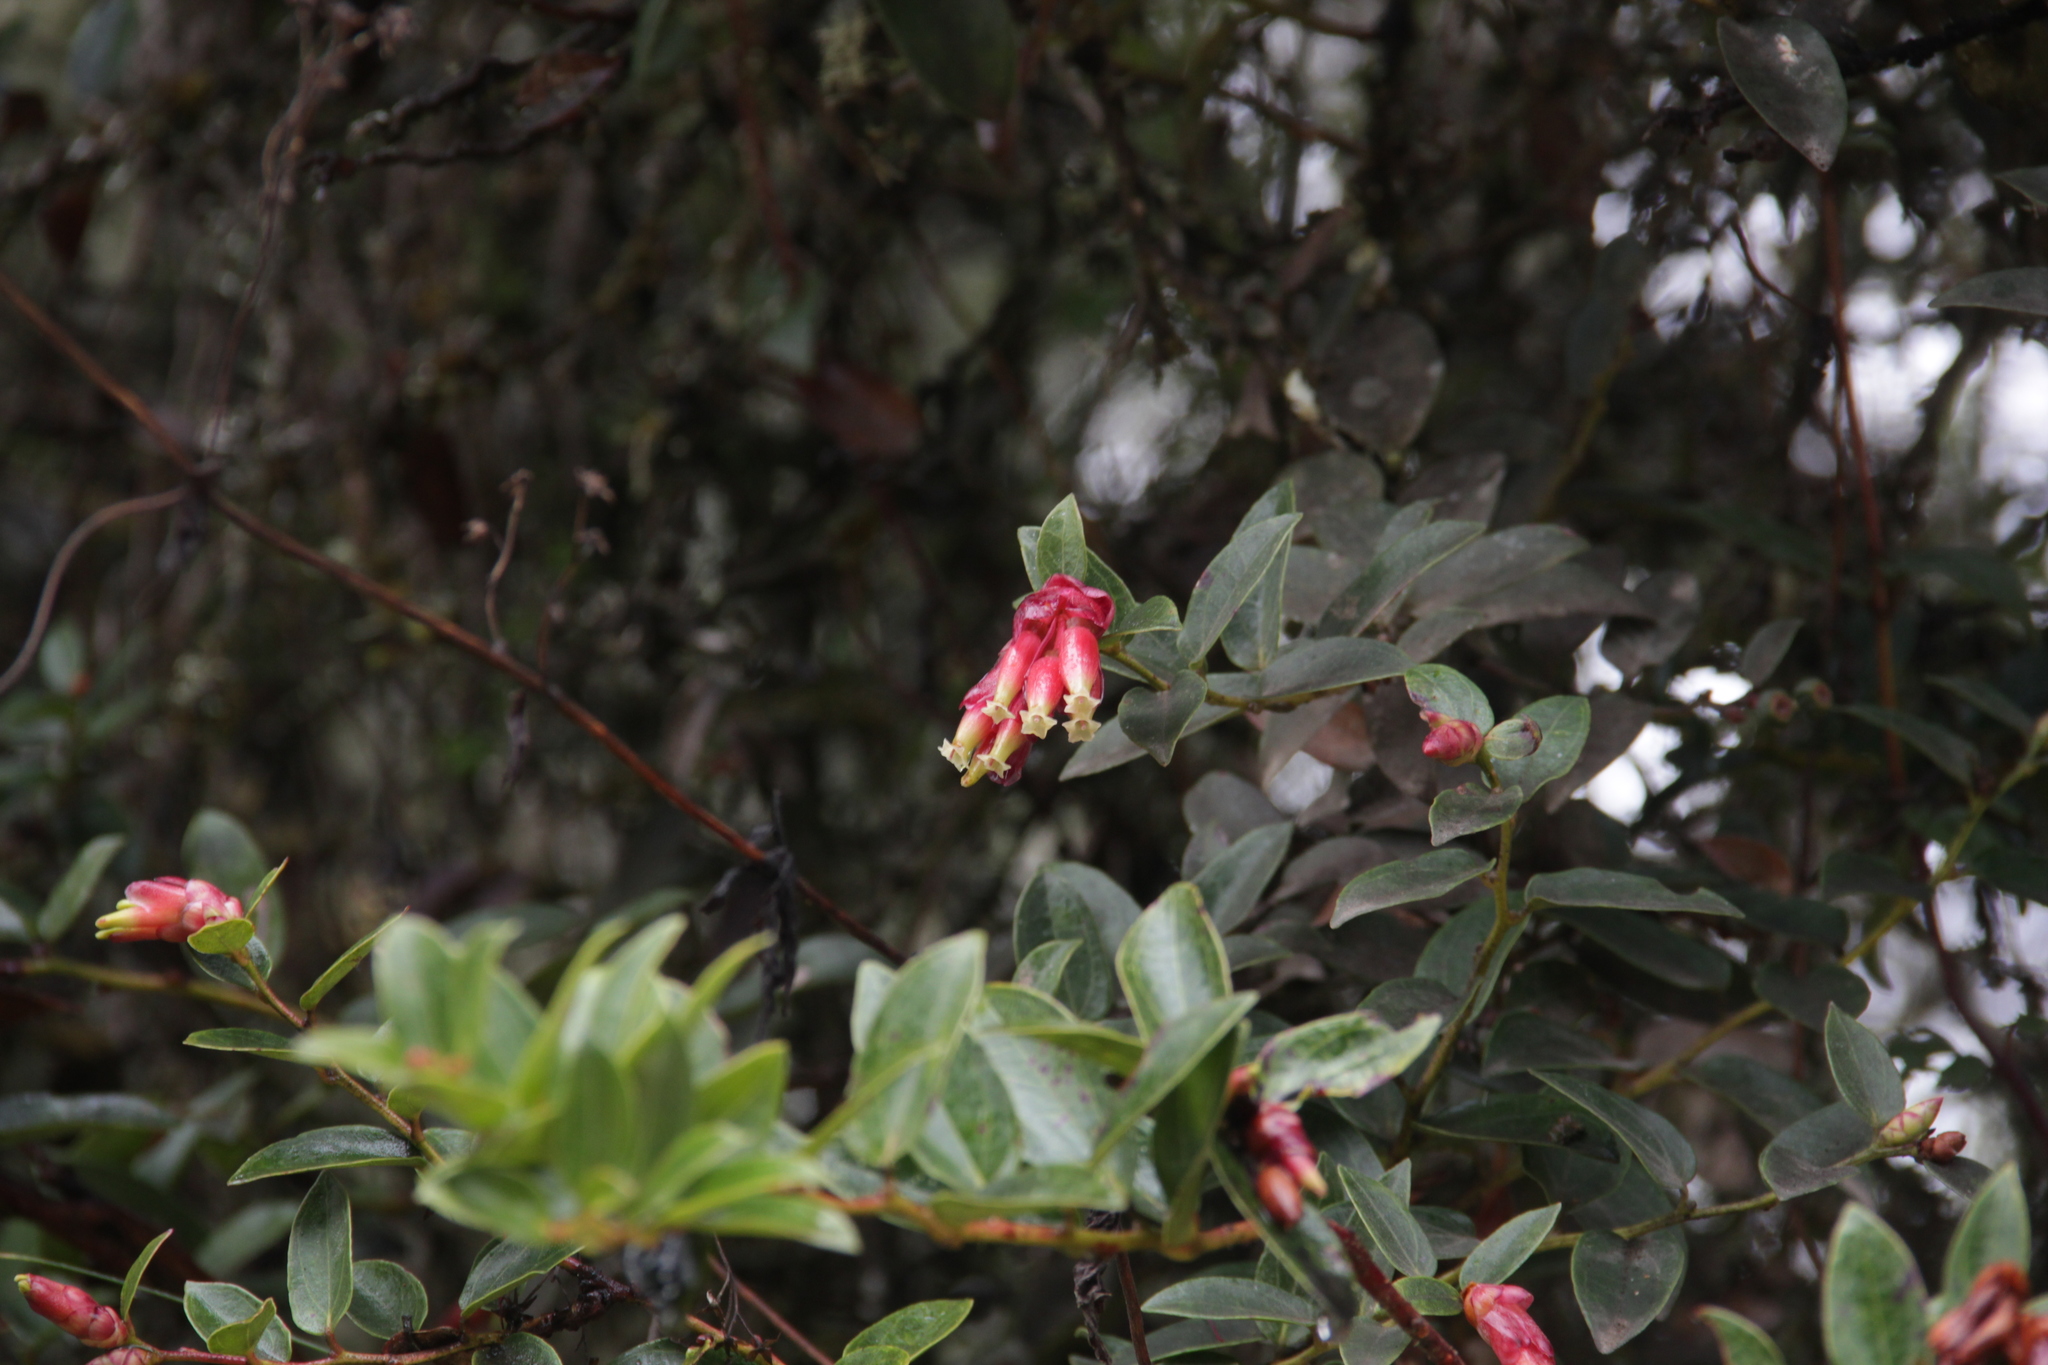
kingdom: Plantae
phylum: Tracheophyta
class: Magnoliopsida
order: Ericales
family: Ericaceae
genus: Cavendishia
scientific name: Cavendishia bracteata
